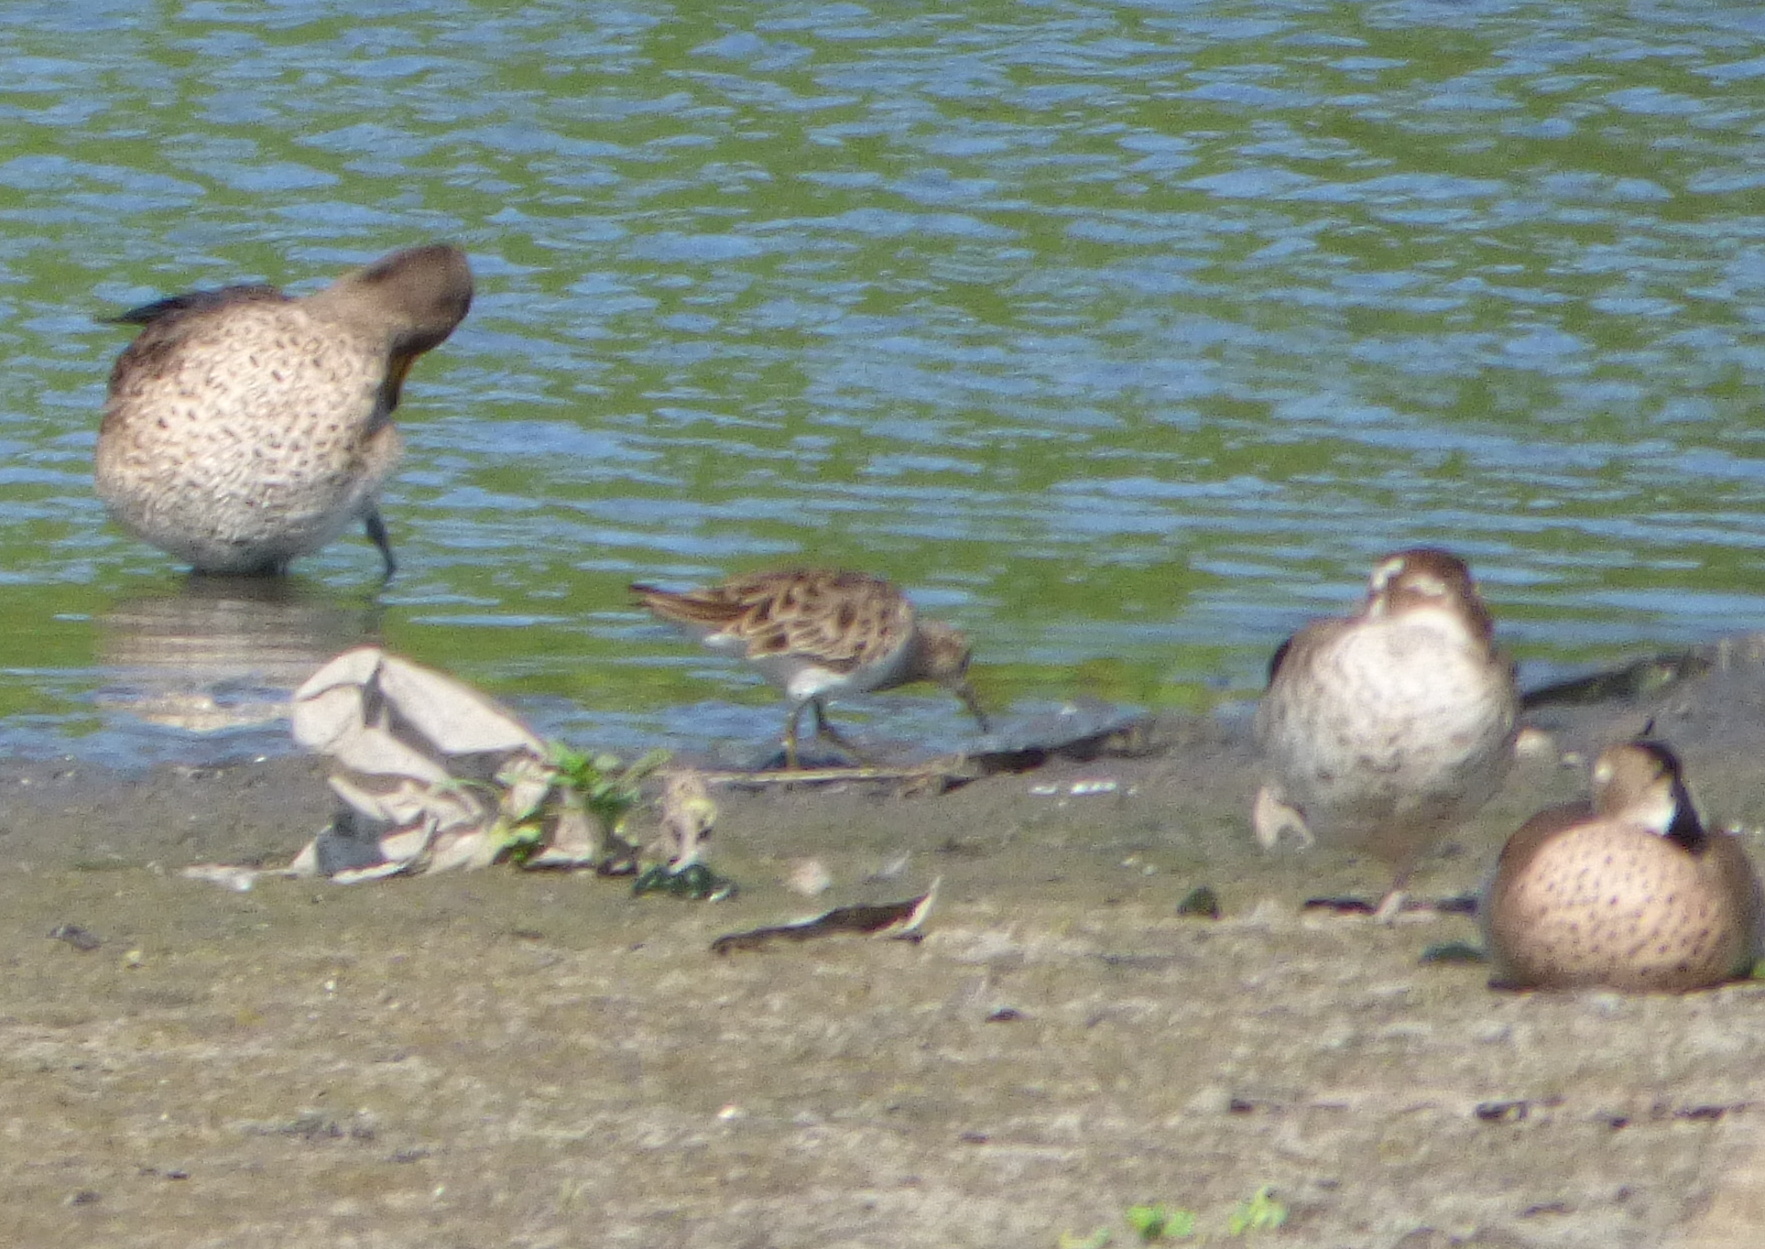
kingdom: Animalia
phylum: Chordata
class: Aves
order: Charadriiformes
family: Scolopacidae
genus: Calidris
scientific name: Calidris melanotos
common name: Pectoral sandpiper
